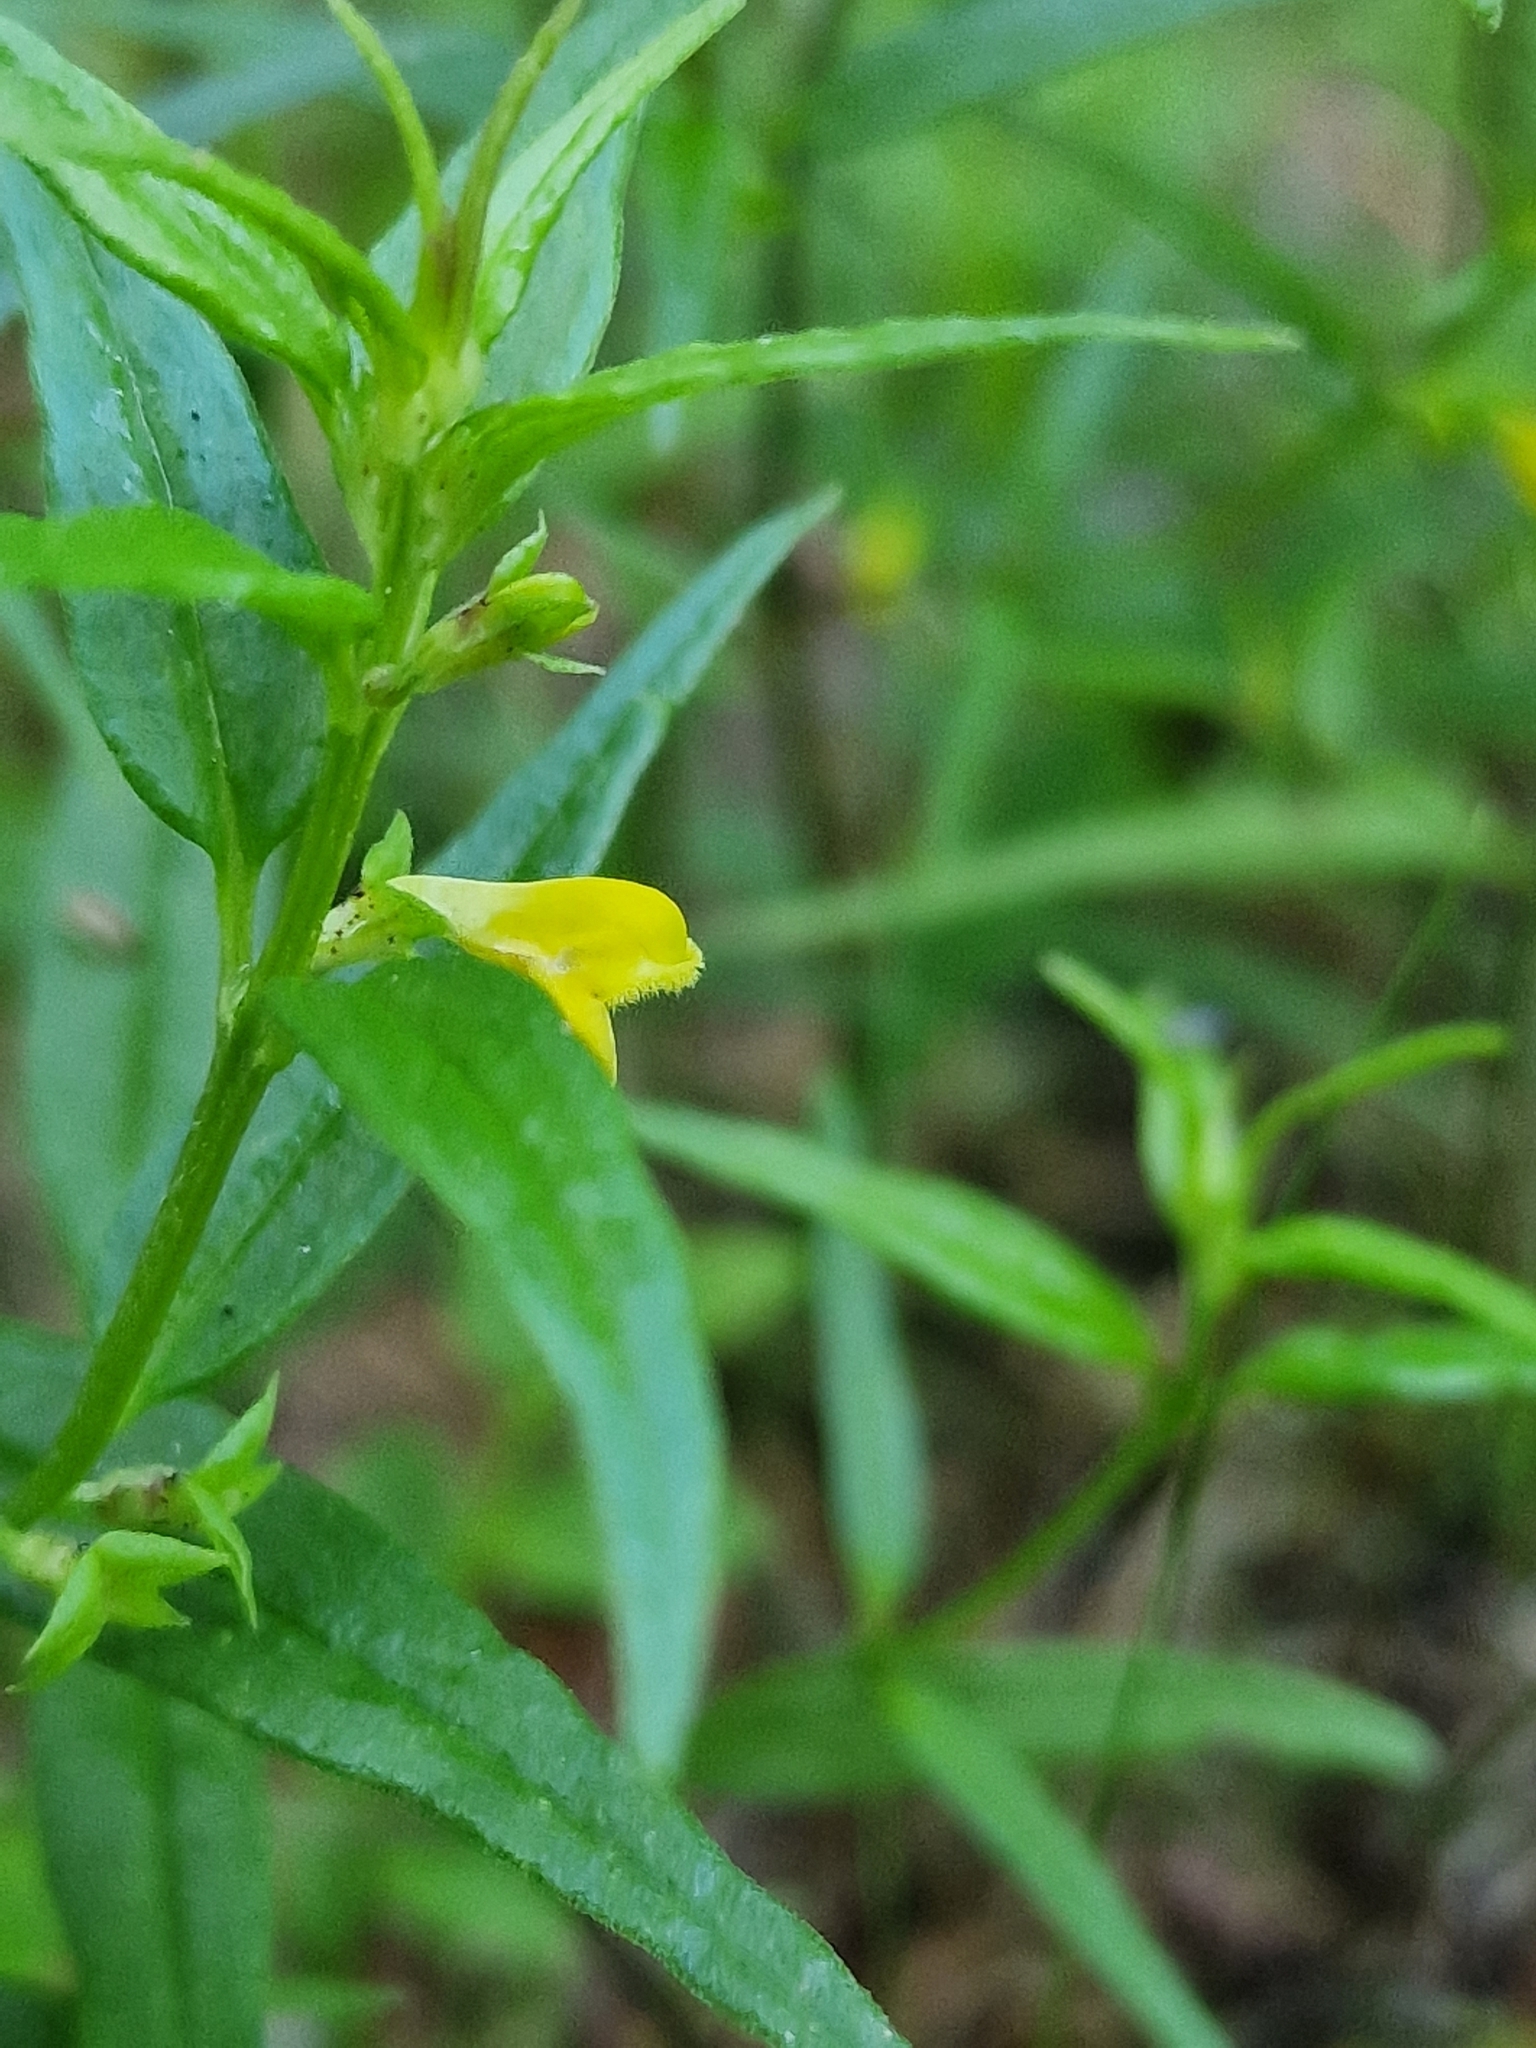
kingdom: Plantae
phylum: Tracheophyta
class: Magnoliopsida
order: Lamiales
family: Orobanchaceae
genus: Melampyrum
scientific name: Melampyrum sylvaticum
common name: Small cow-wheat
